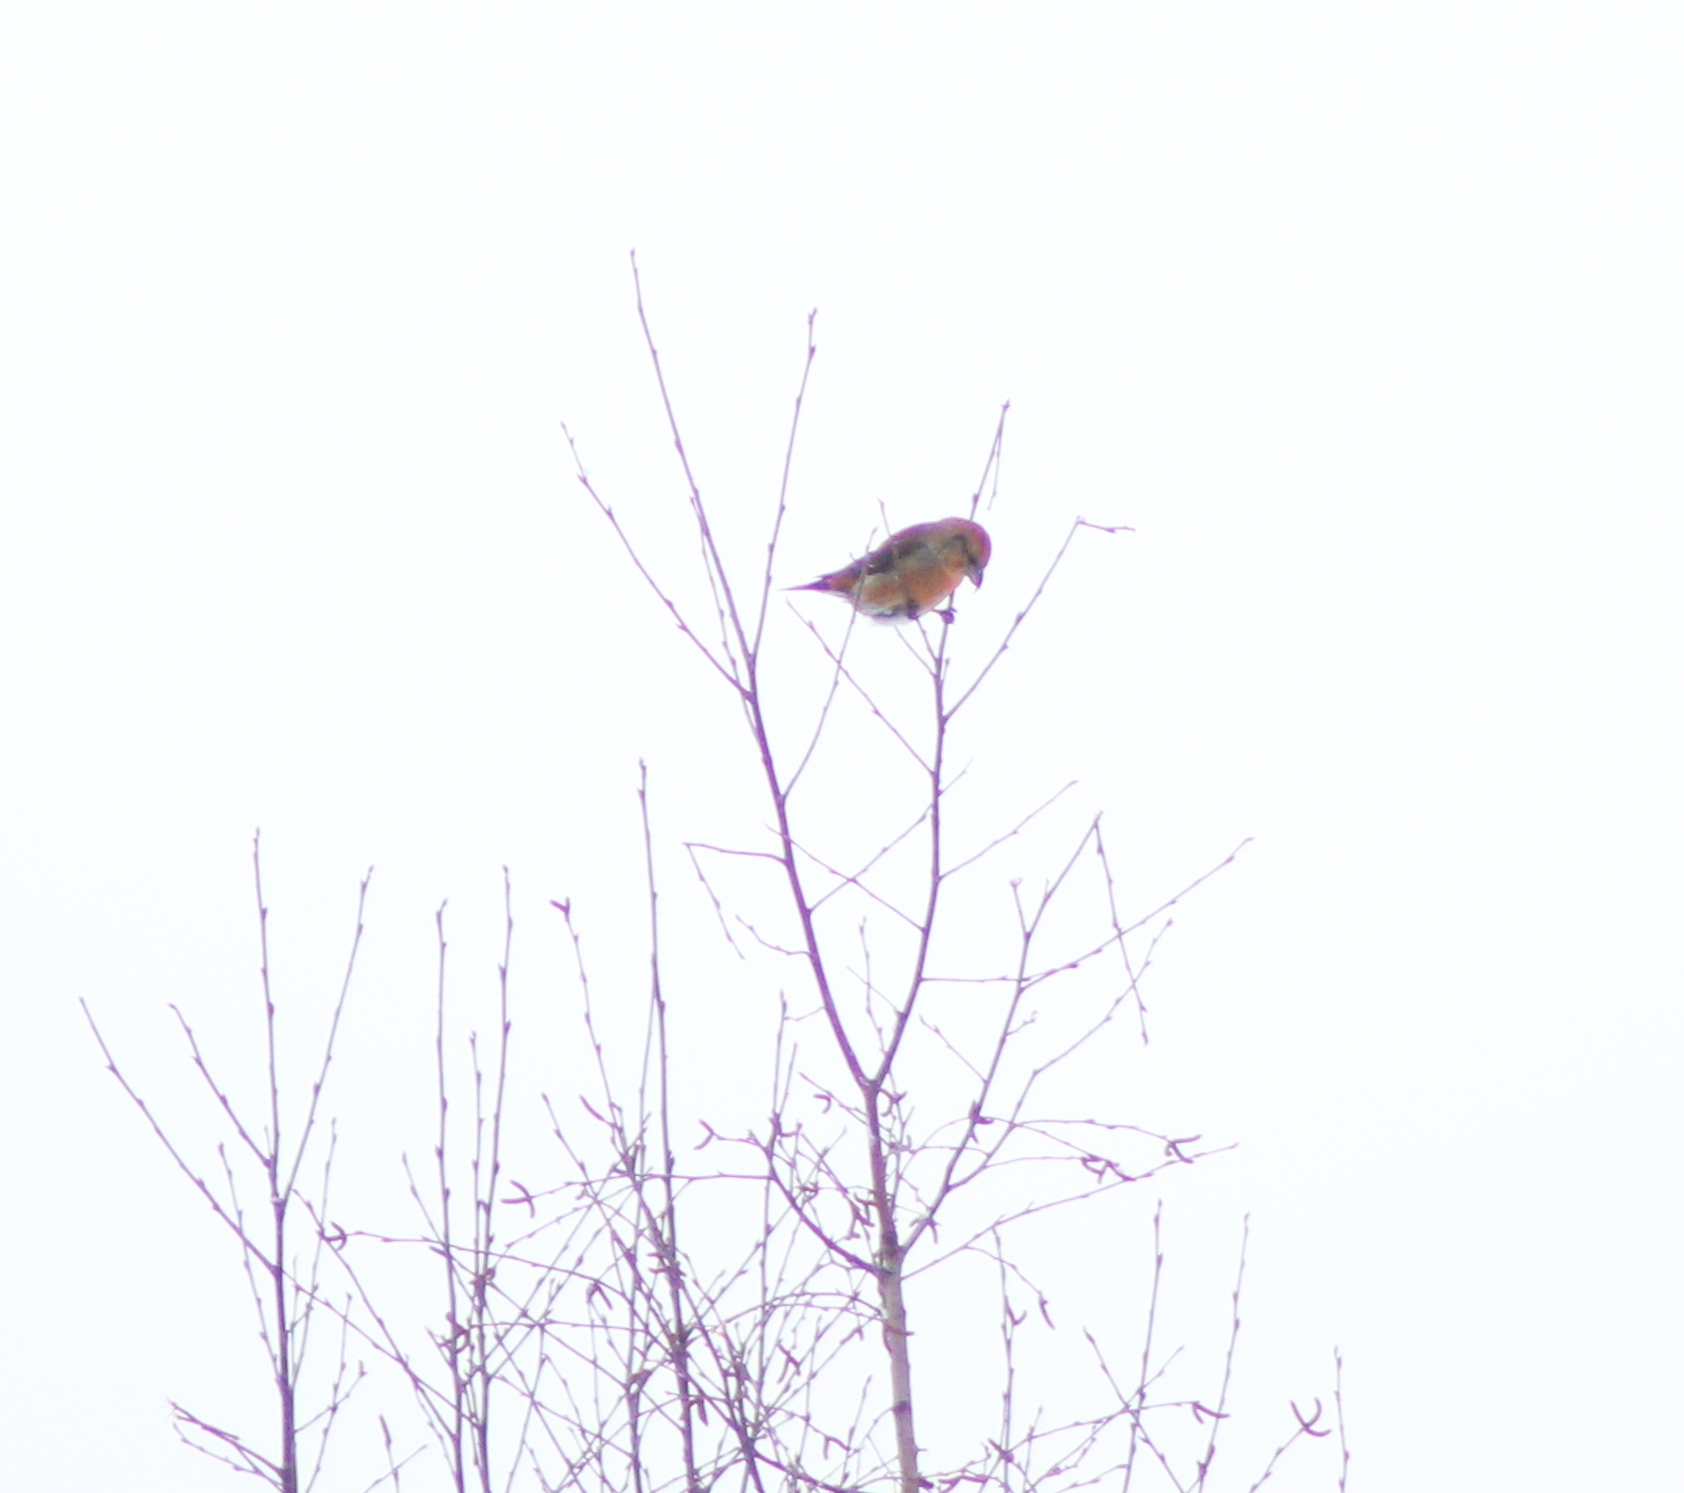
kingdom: Animalia
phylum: Chordata
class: Aves
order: Passeriformes
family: Fringillidae
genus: Loxia
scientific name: Loxia curvirostra
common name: Red crossbill
